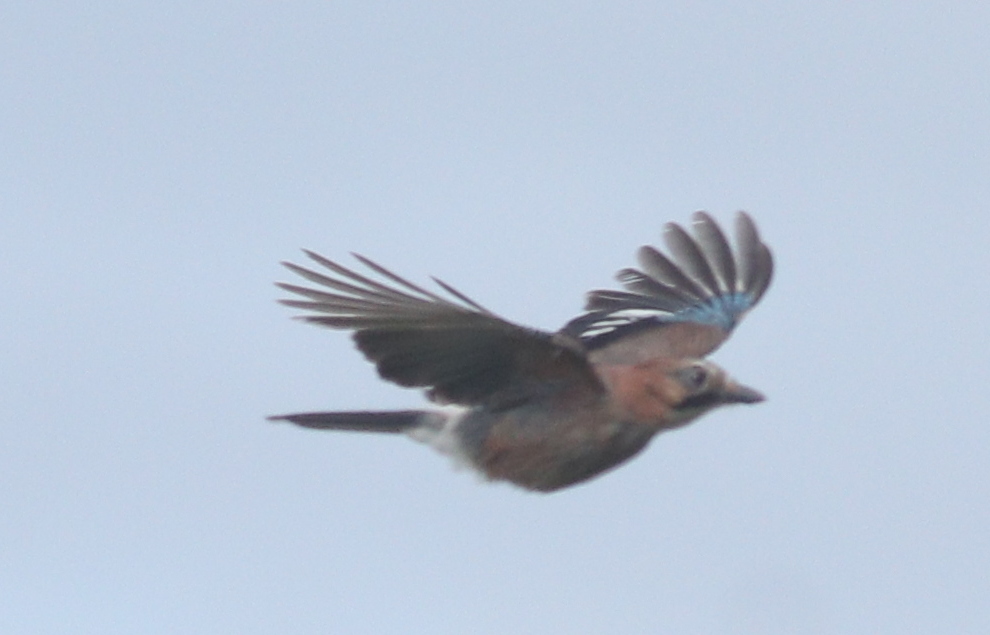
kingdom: Animalia
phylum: Chordata
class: Aves
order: Passeriformes
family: Corvidae
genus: Garrulus
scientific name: Garrulus glandarius
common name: Eurasian jay
